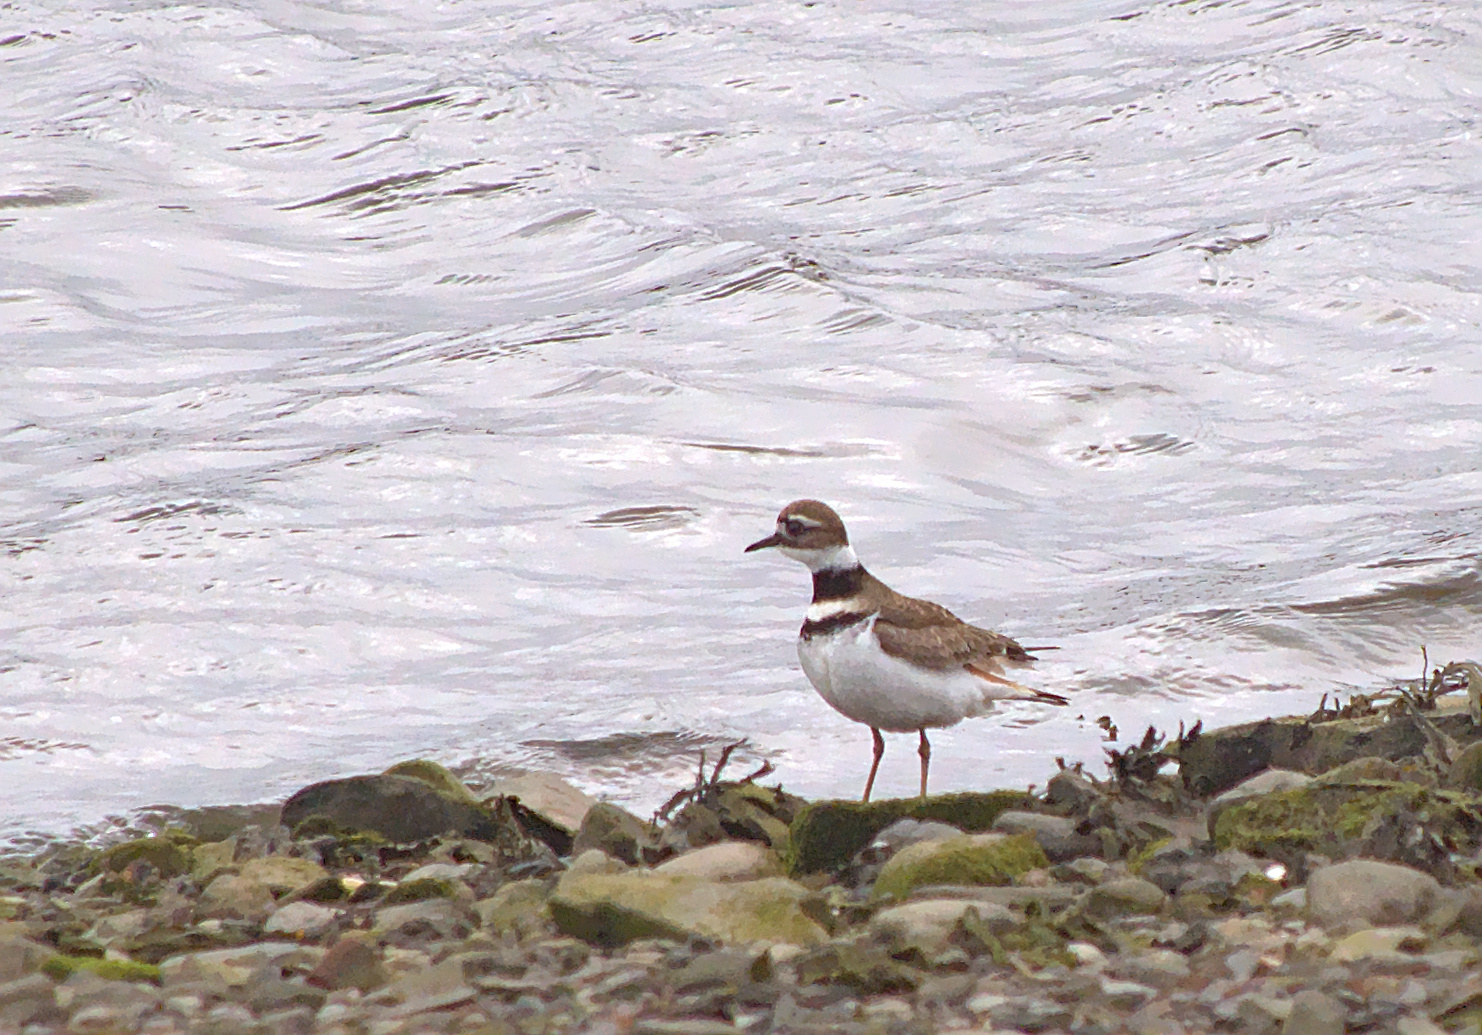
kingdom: Animalia
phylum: Chordata
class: Aves
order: Charadriiformes
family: Charadriidae
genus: Charadrius
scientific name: Charadrius vociferus
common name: Killdeer
